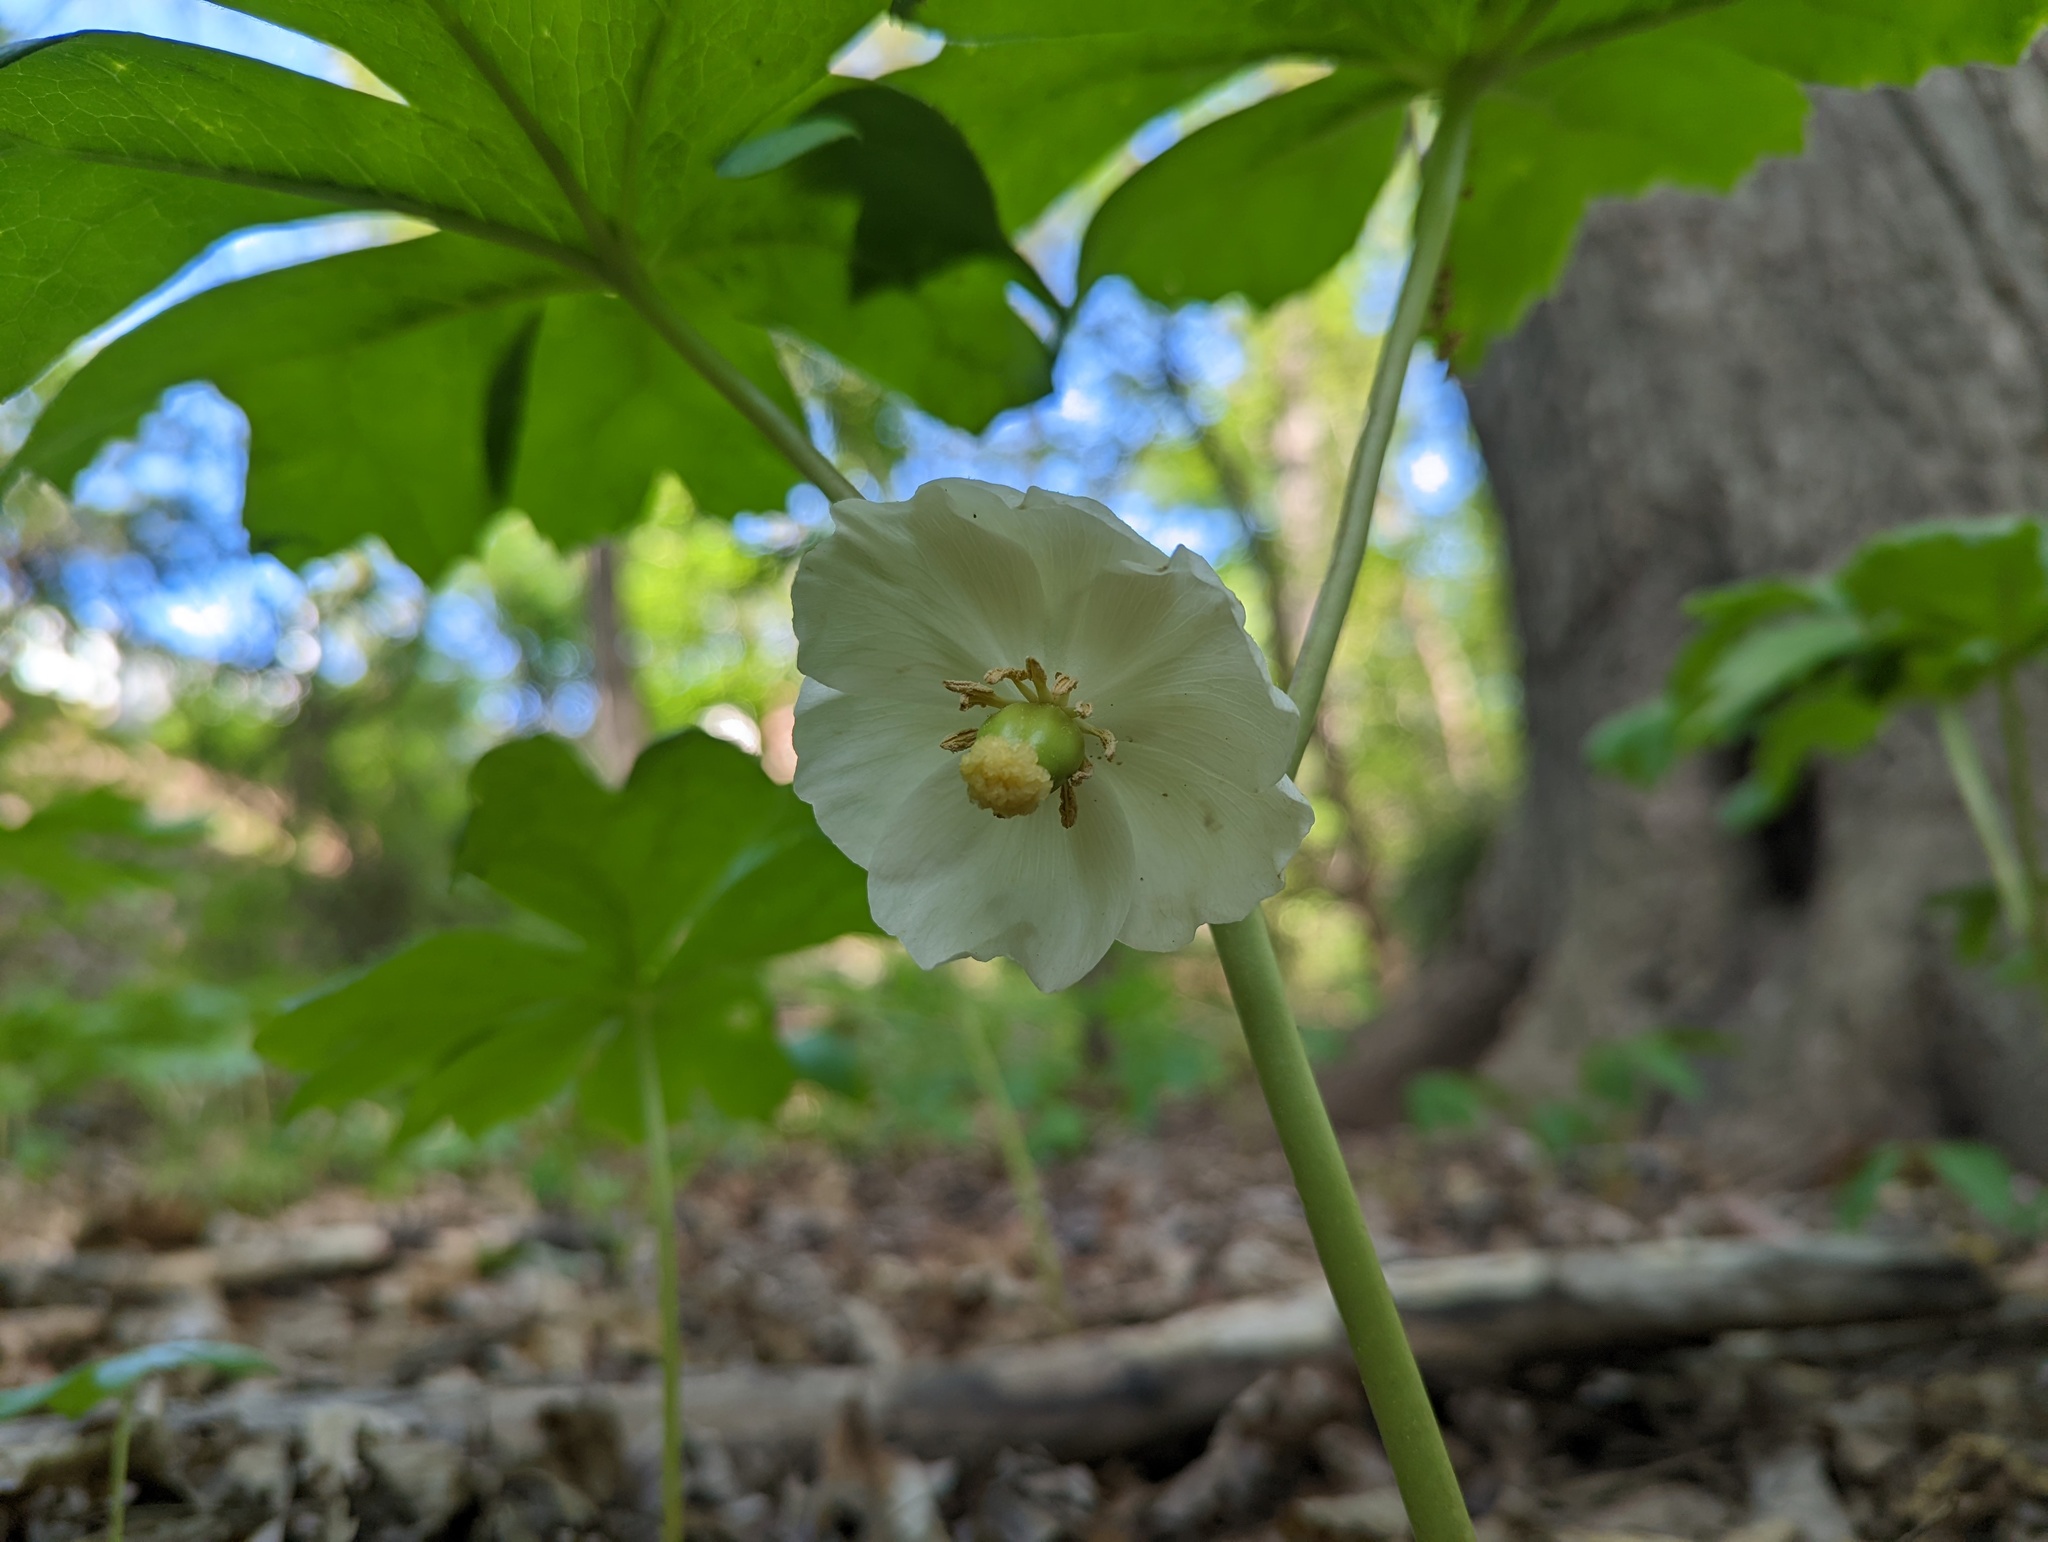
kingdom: Plantae
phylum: Tracheophyta
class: Magnoliopsida
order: Ranunculales
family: Berberidaceae
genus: Podophyllum
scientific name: Podophyllum peltatum
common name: Wild mandrake
